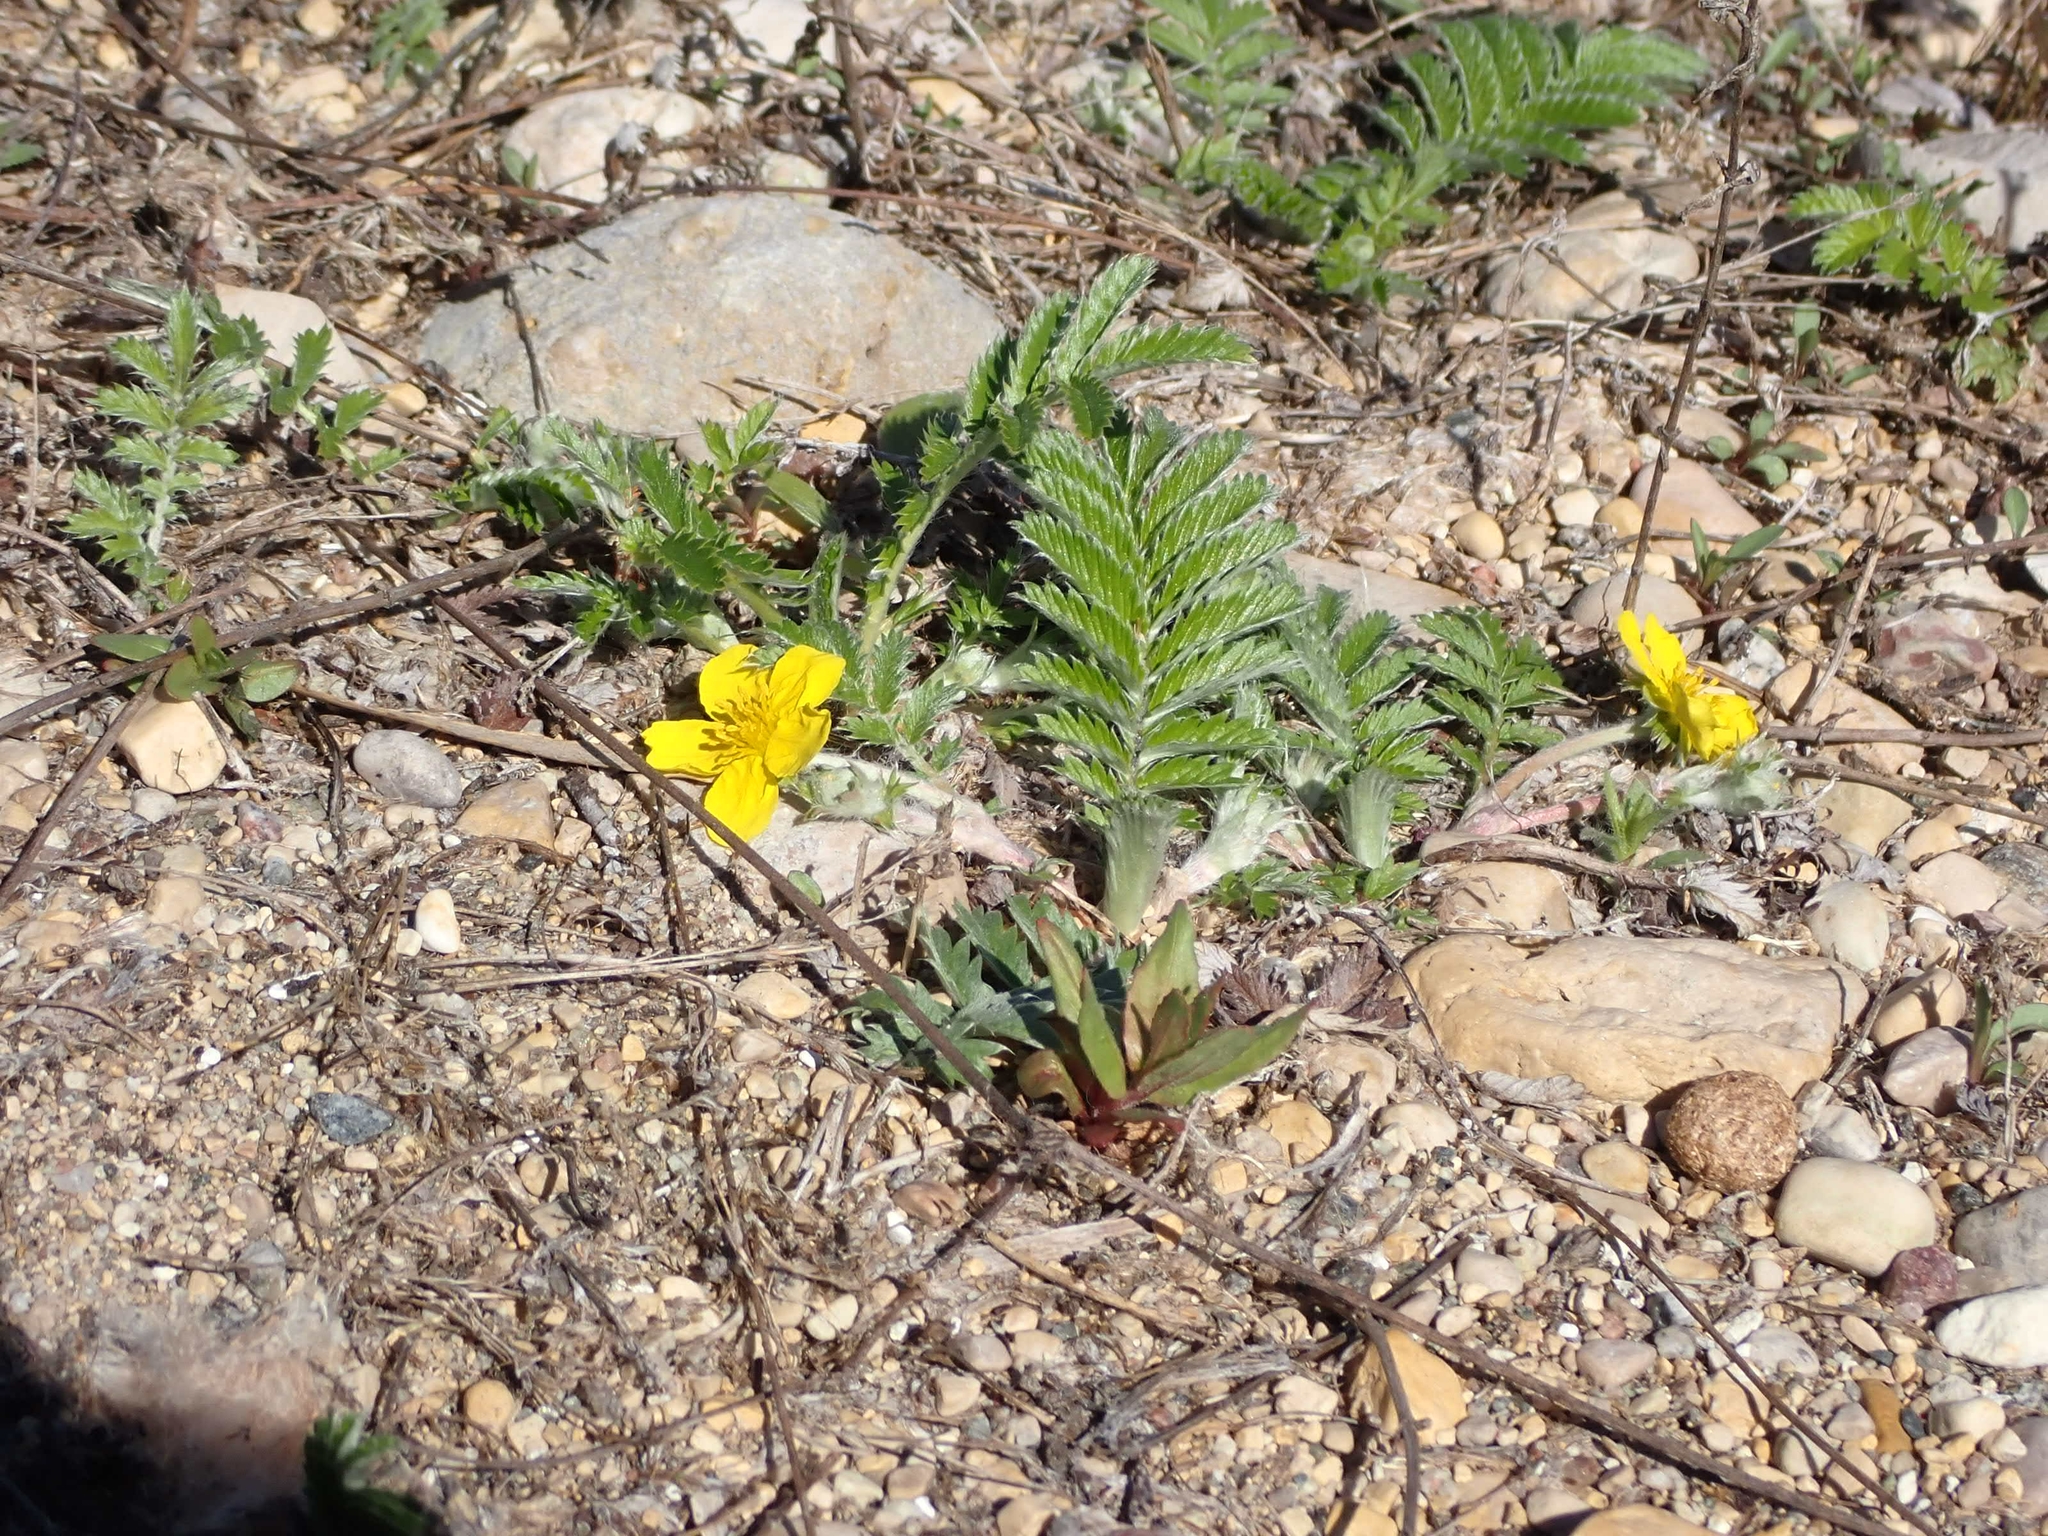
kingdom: Plantae
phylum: Tracheophyta
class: Magnoliopsida
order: Rosales
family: Rosaceae
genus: Argentina
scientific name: Argentina anserina
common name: Common silverweed
